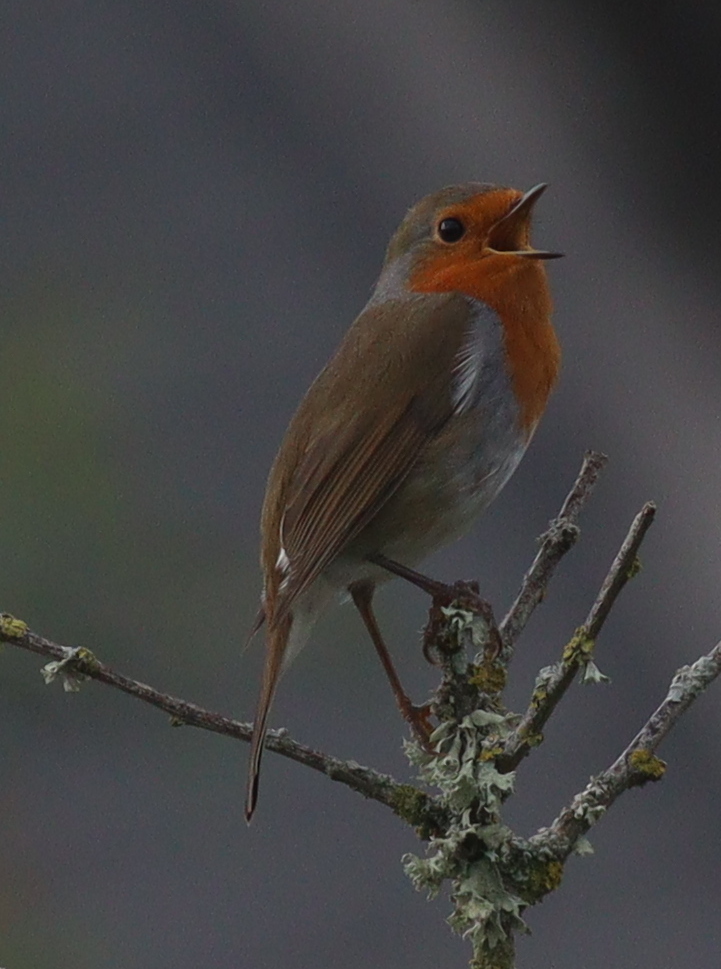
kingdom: Animalia
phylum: Chordata
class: Aves
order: Passeriformes
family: Muscicapidae
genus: Erithacus
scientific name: Erithacus rubecula
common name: European robin
